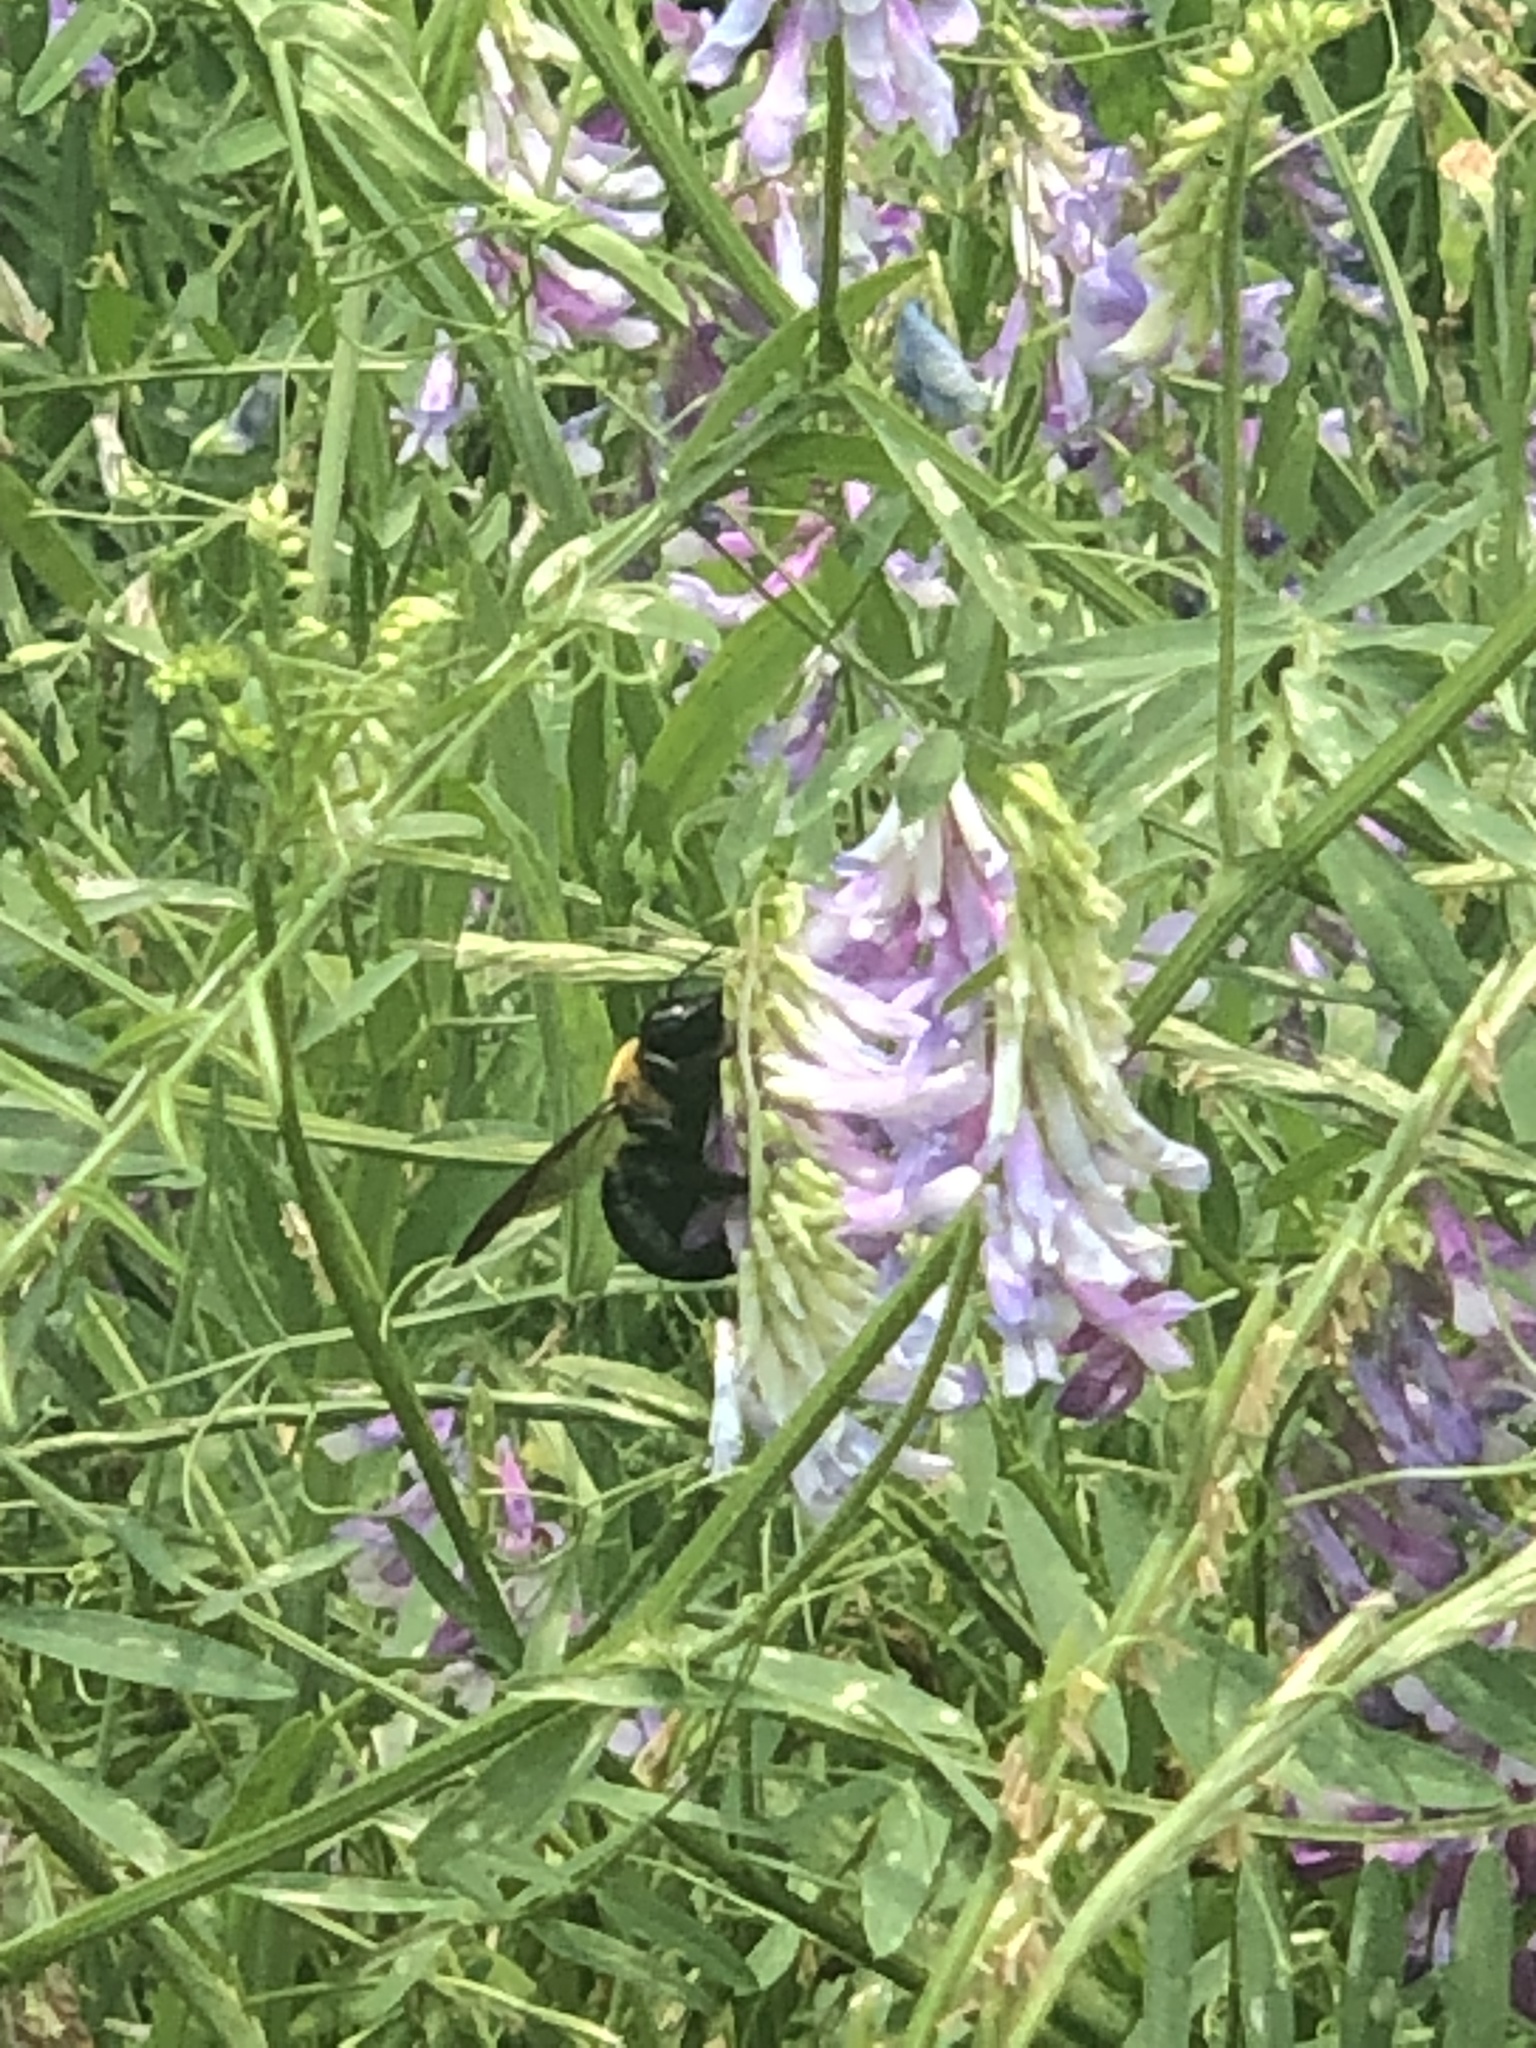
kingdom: Animalia
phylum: Arthropoda
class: Insecta
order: Hymenoptera
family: Apidae
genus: Xylocopa
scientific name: Xylocopa virginica
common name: Carpenter bee
